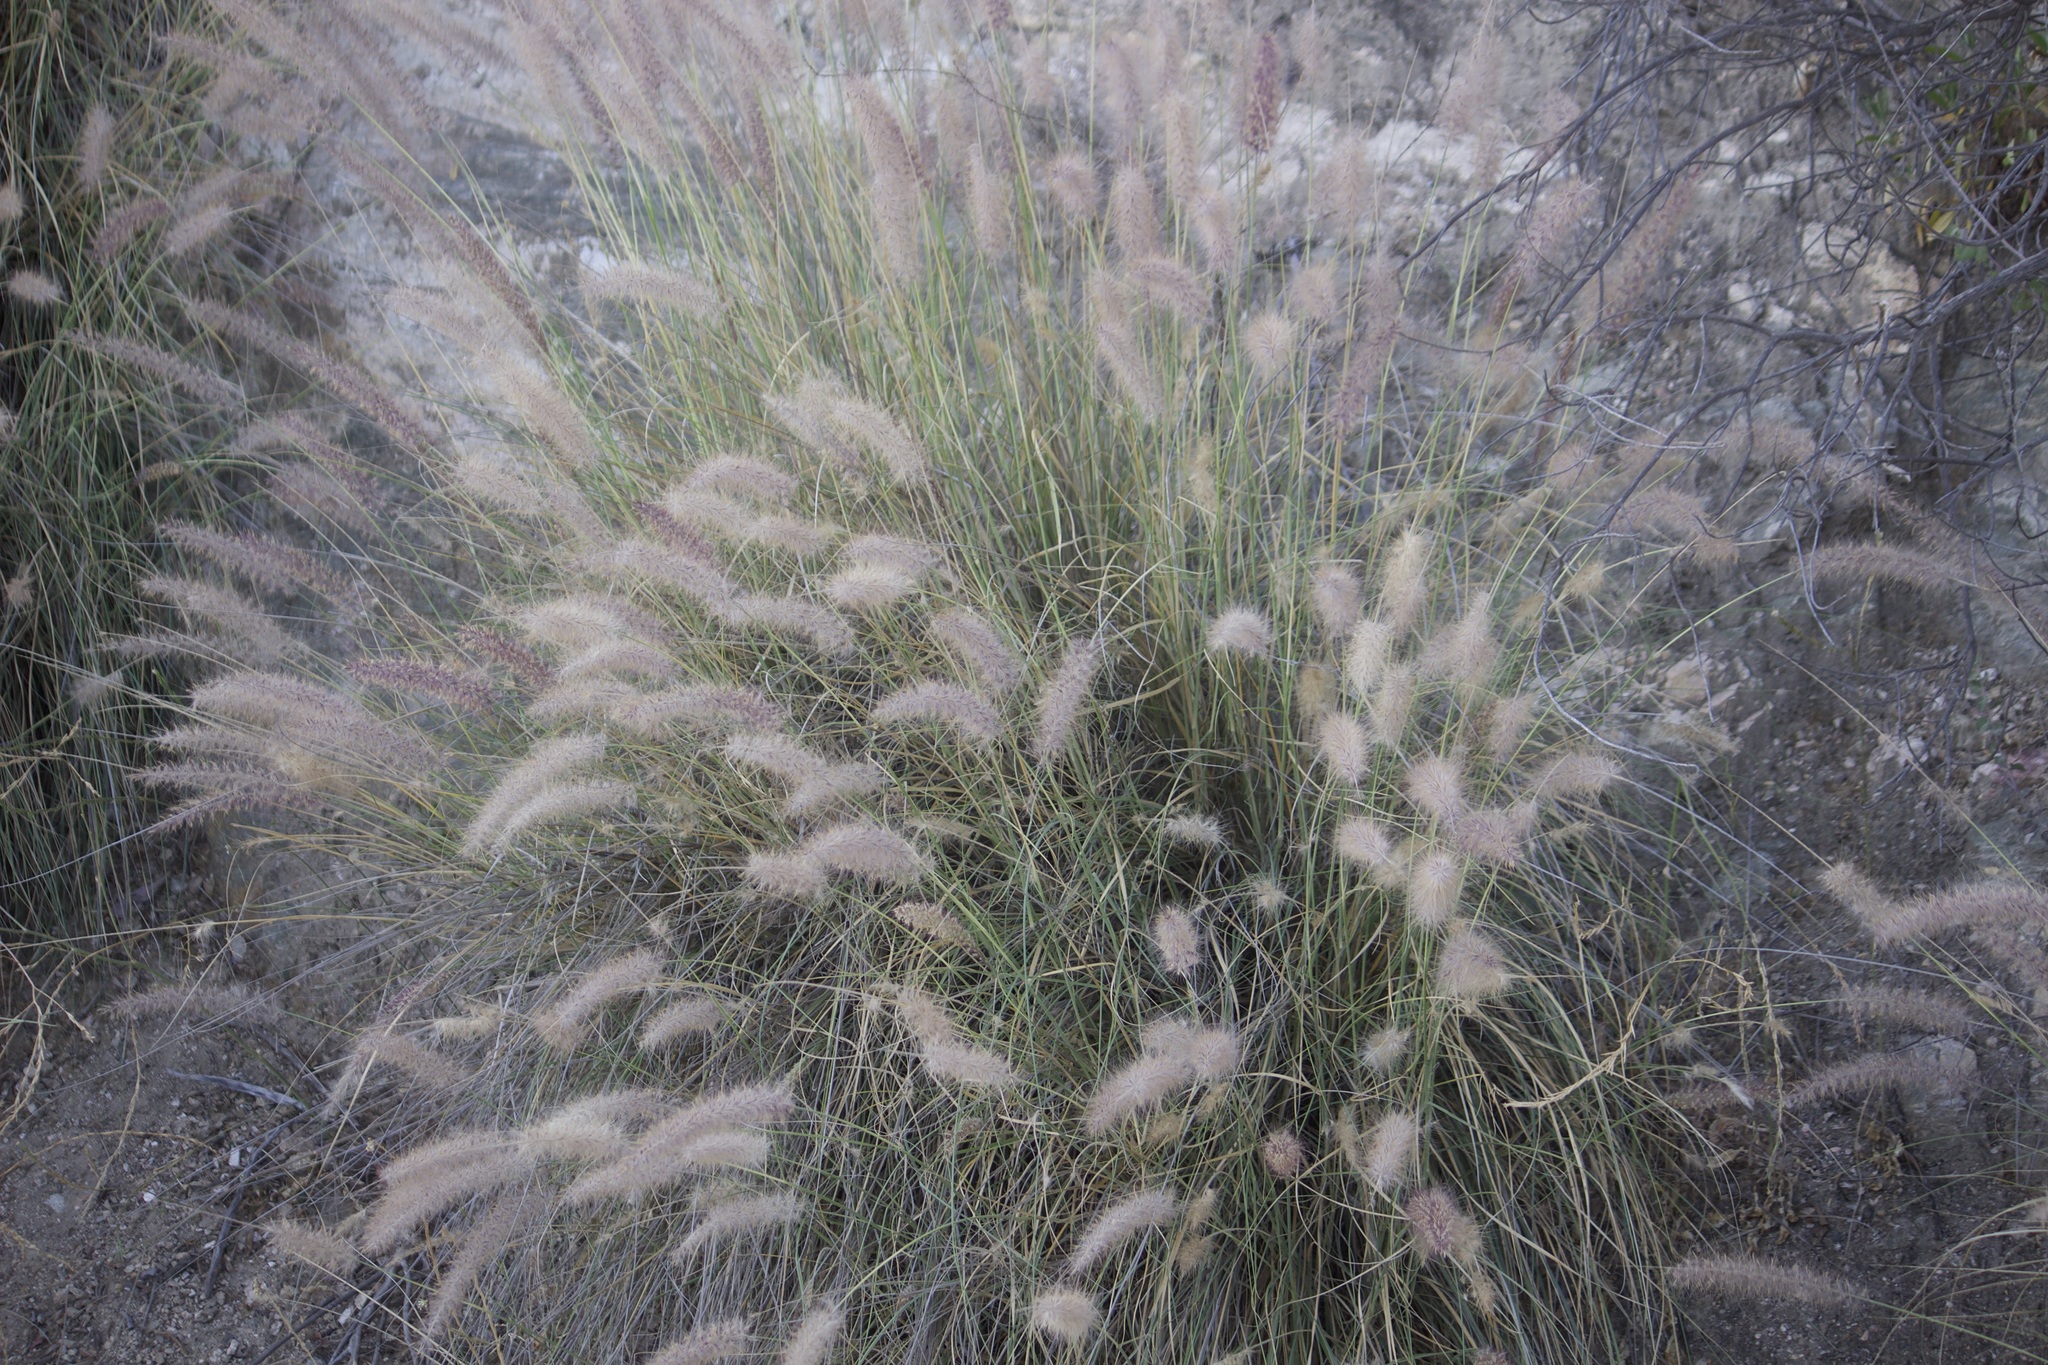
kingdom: Plantae
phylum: Tracheophyta
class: Liliopsida
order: Poales
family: Poaceae
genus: Cenchrus
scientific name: Cenchrus setaceus
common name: Crimson fountaingrass
